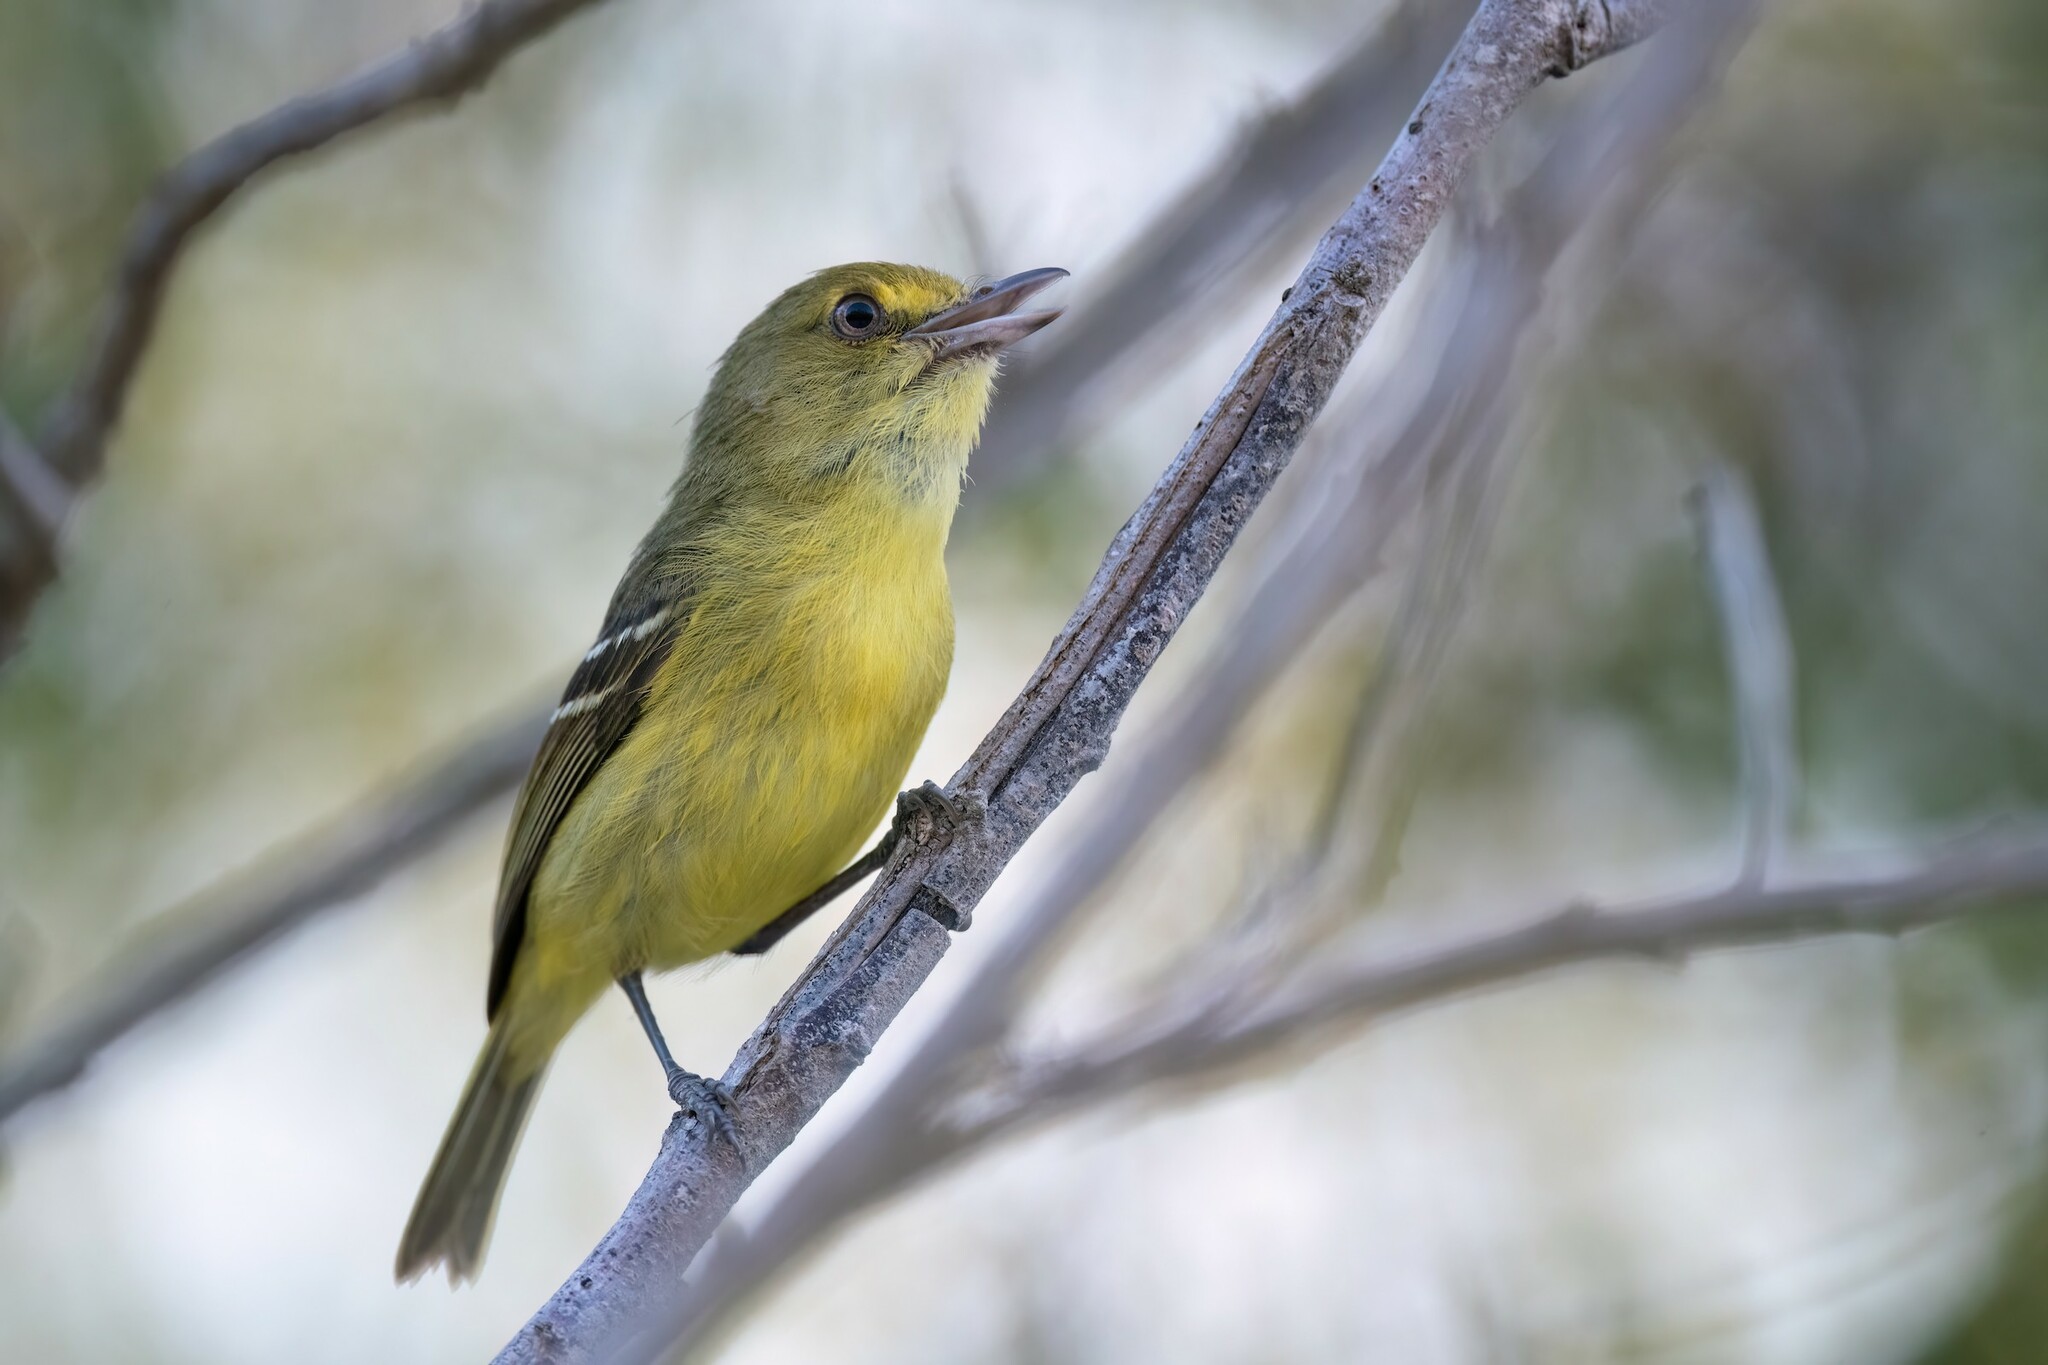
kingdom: Animalia
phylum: Chordata
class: Aves
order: Passeriformes
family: Vireonidae
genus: Vireo
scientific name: Vireo pallens
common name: Mangrove vireo
